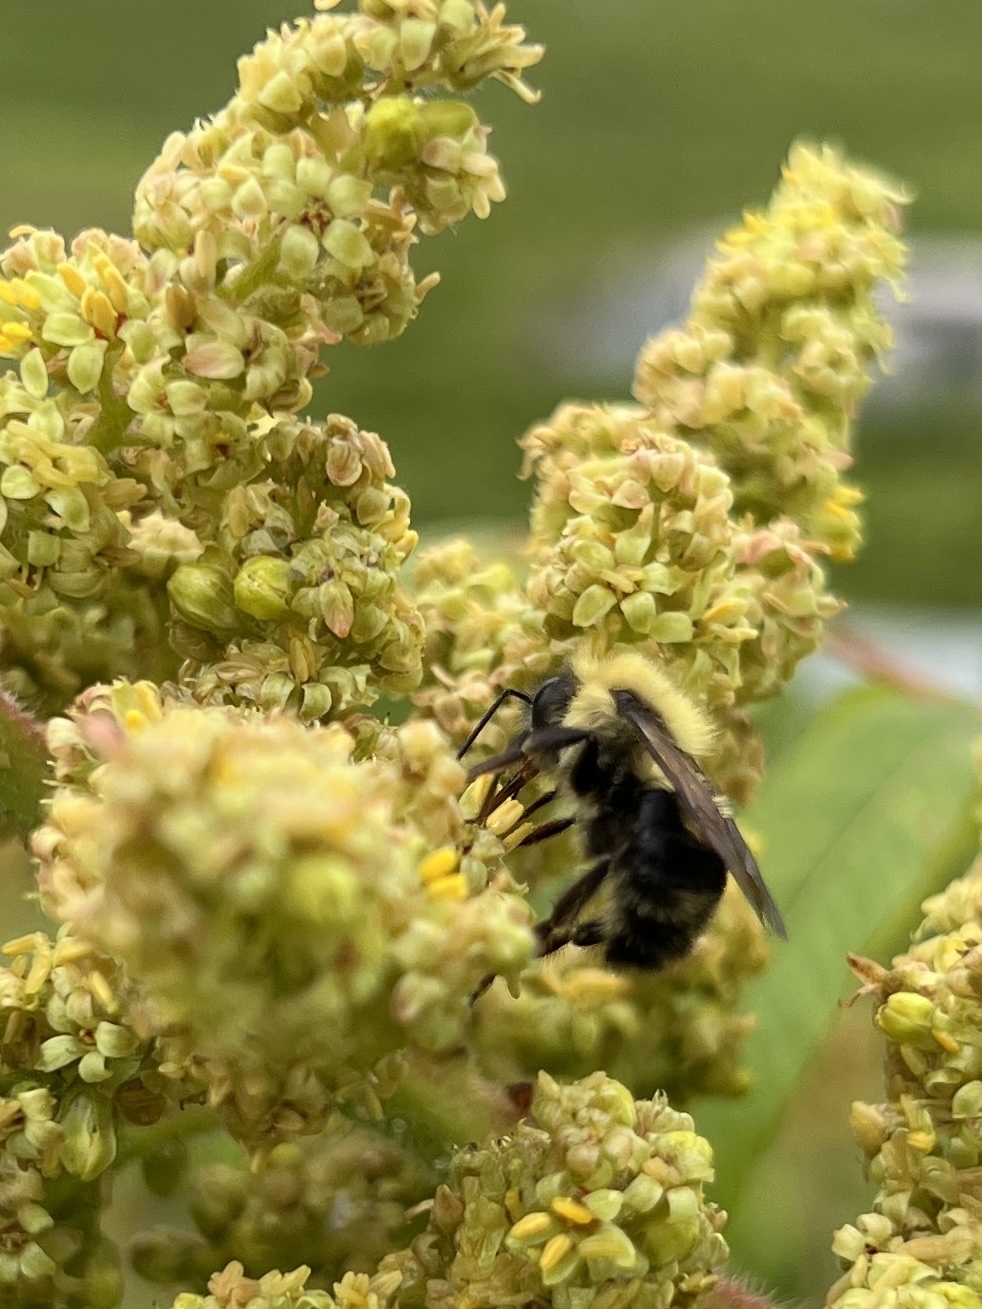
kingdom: Animalia
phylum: Arthropoda
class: Insecta
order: Hymenoptera
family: Apidae
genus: Bombus
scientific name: Bombus bimaculatus
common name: Two-spotted bumble bee
